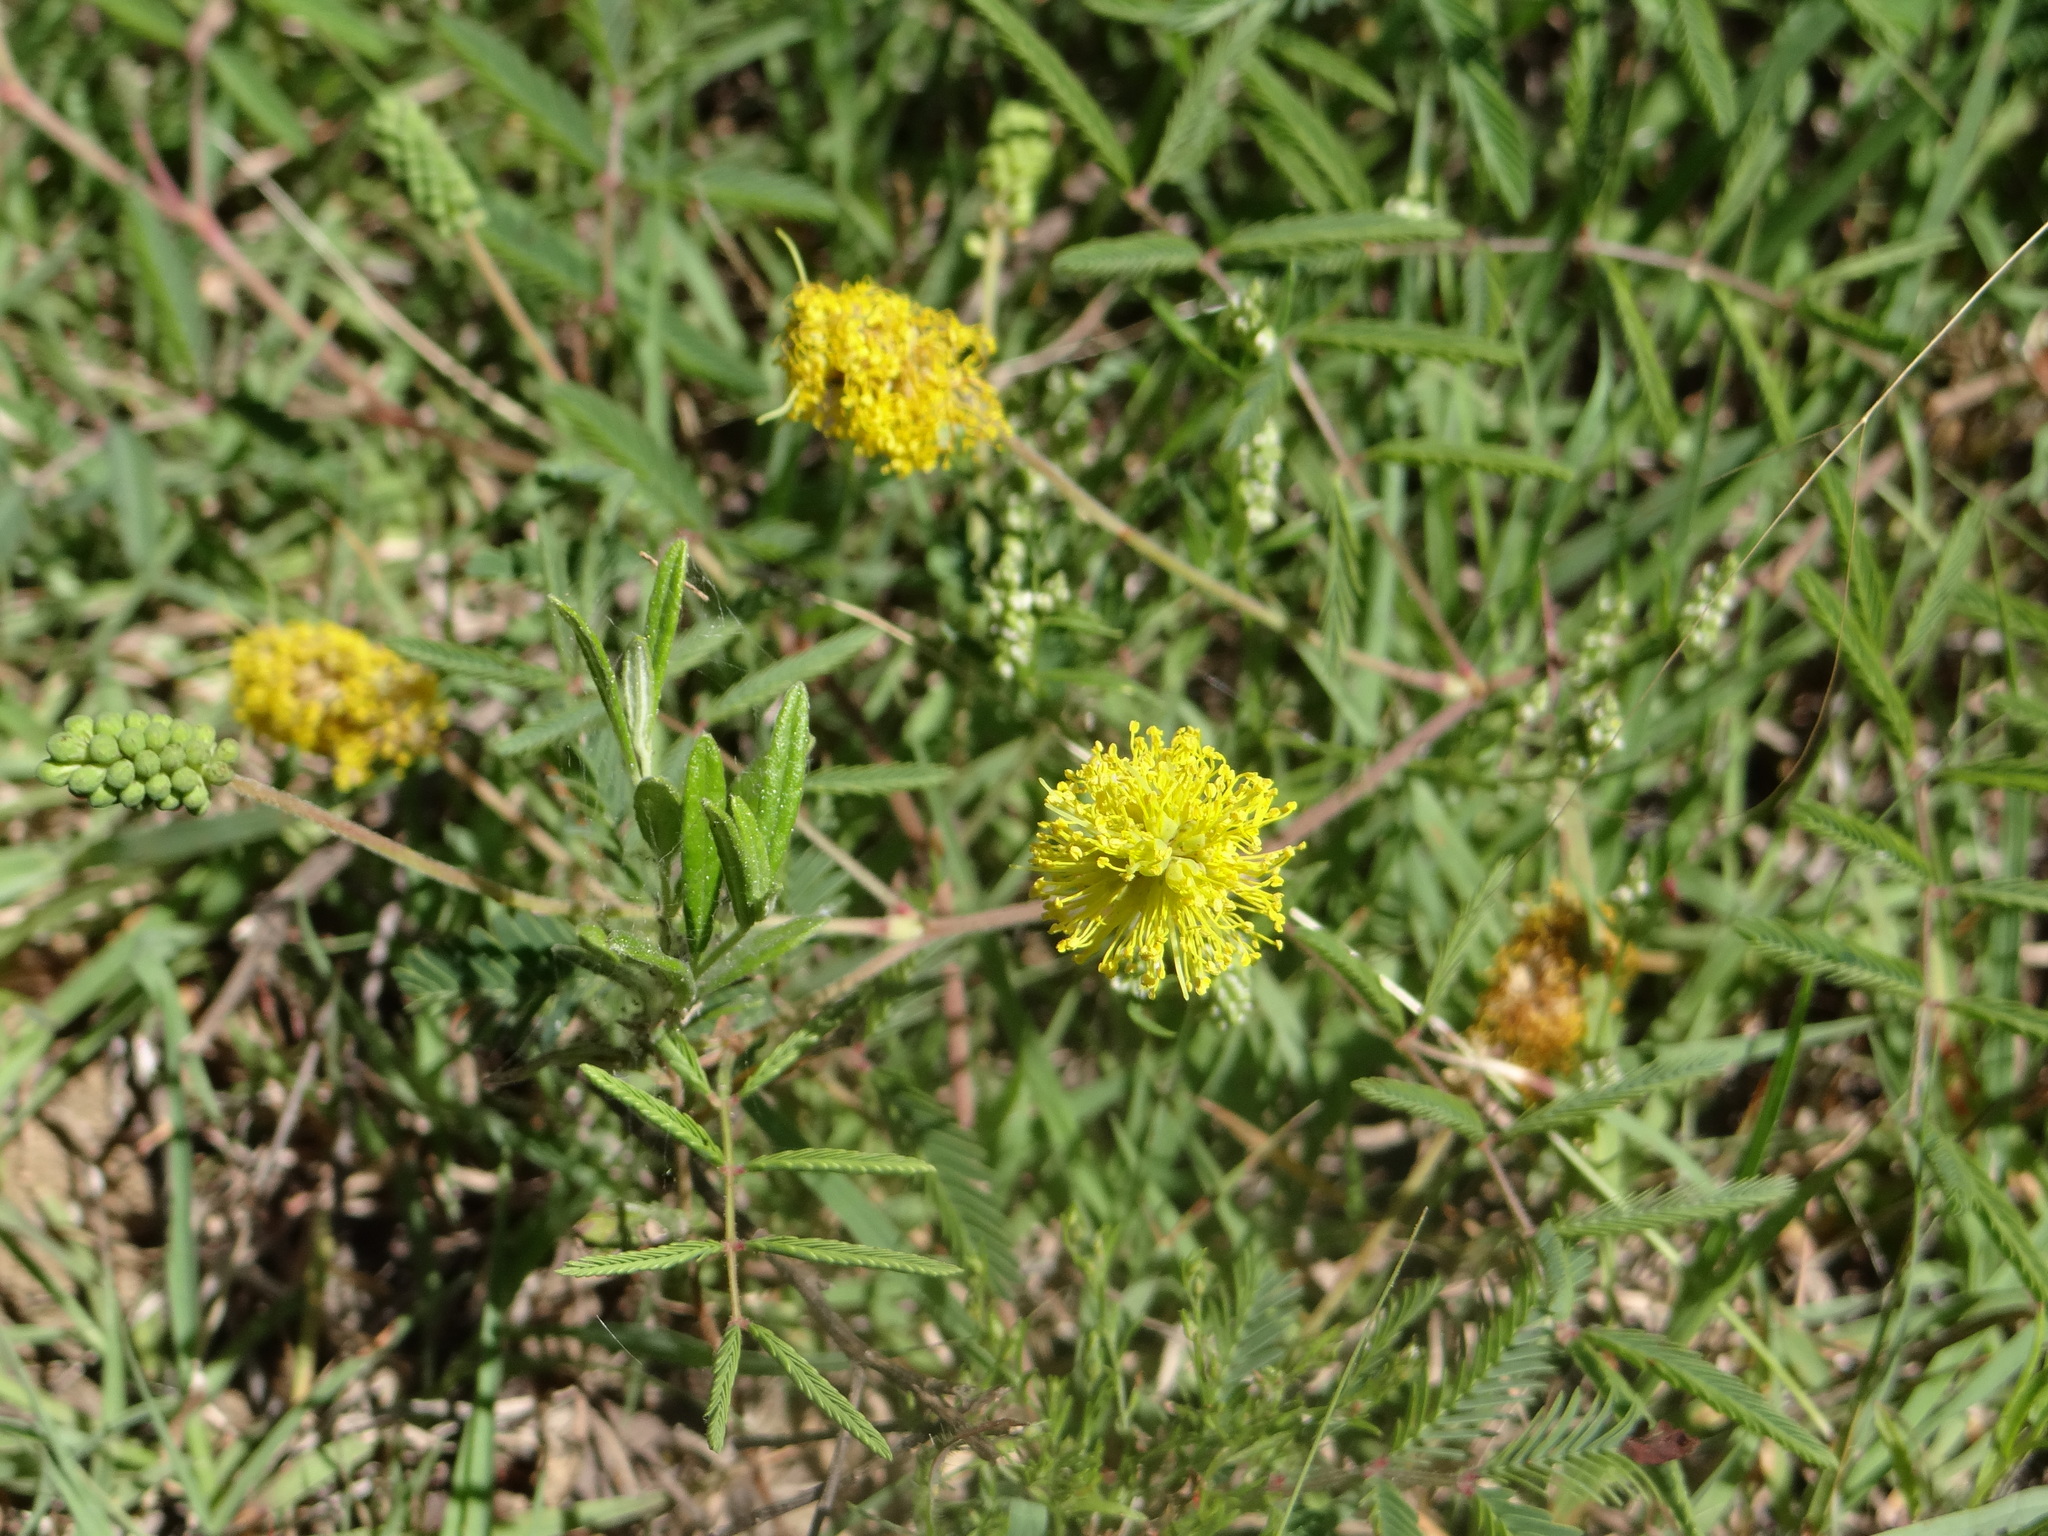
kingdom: Plantae
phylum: Tracheophyta
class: Magnoliopsida
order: Fabales
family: Fabaceae
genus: Neptunia
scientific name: Neptunia lutea
